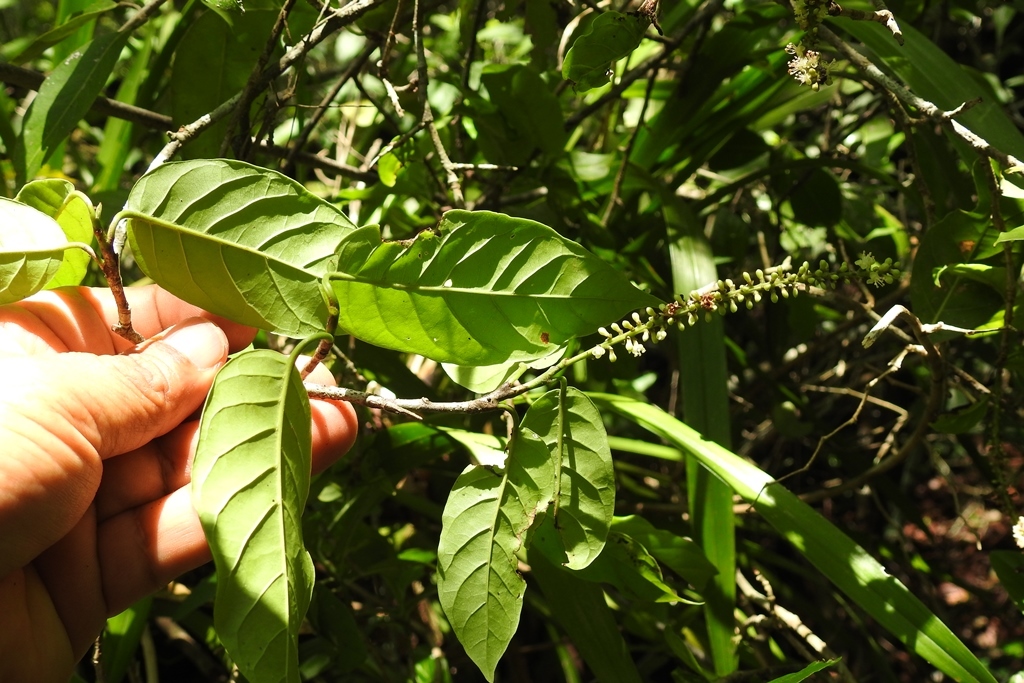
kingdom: Plantae
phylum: Tracheophyta
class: Magnoliopsida
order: Caryophyllales
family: Polygonaceae
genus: Coccoloba
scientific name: Coccoloba floresii
